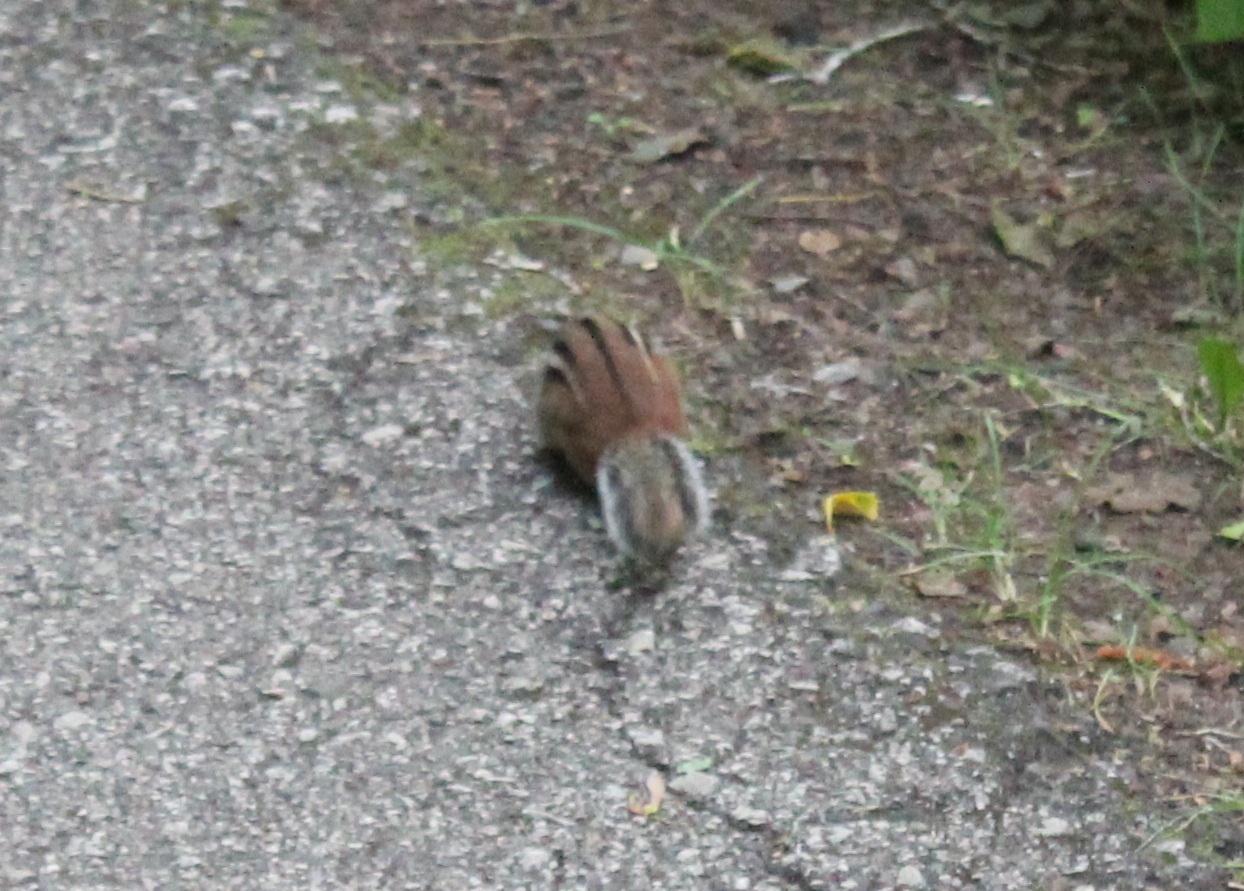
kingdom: Animalia
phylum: Chordata
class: Mammalia
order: Rodentia
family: Sciuridae
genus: Tamias
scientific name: Tamias striatus
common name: Eastern chipmunk
